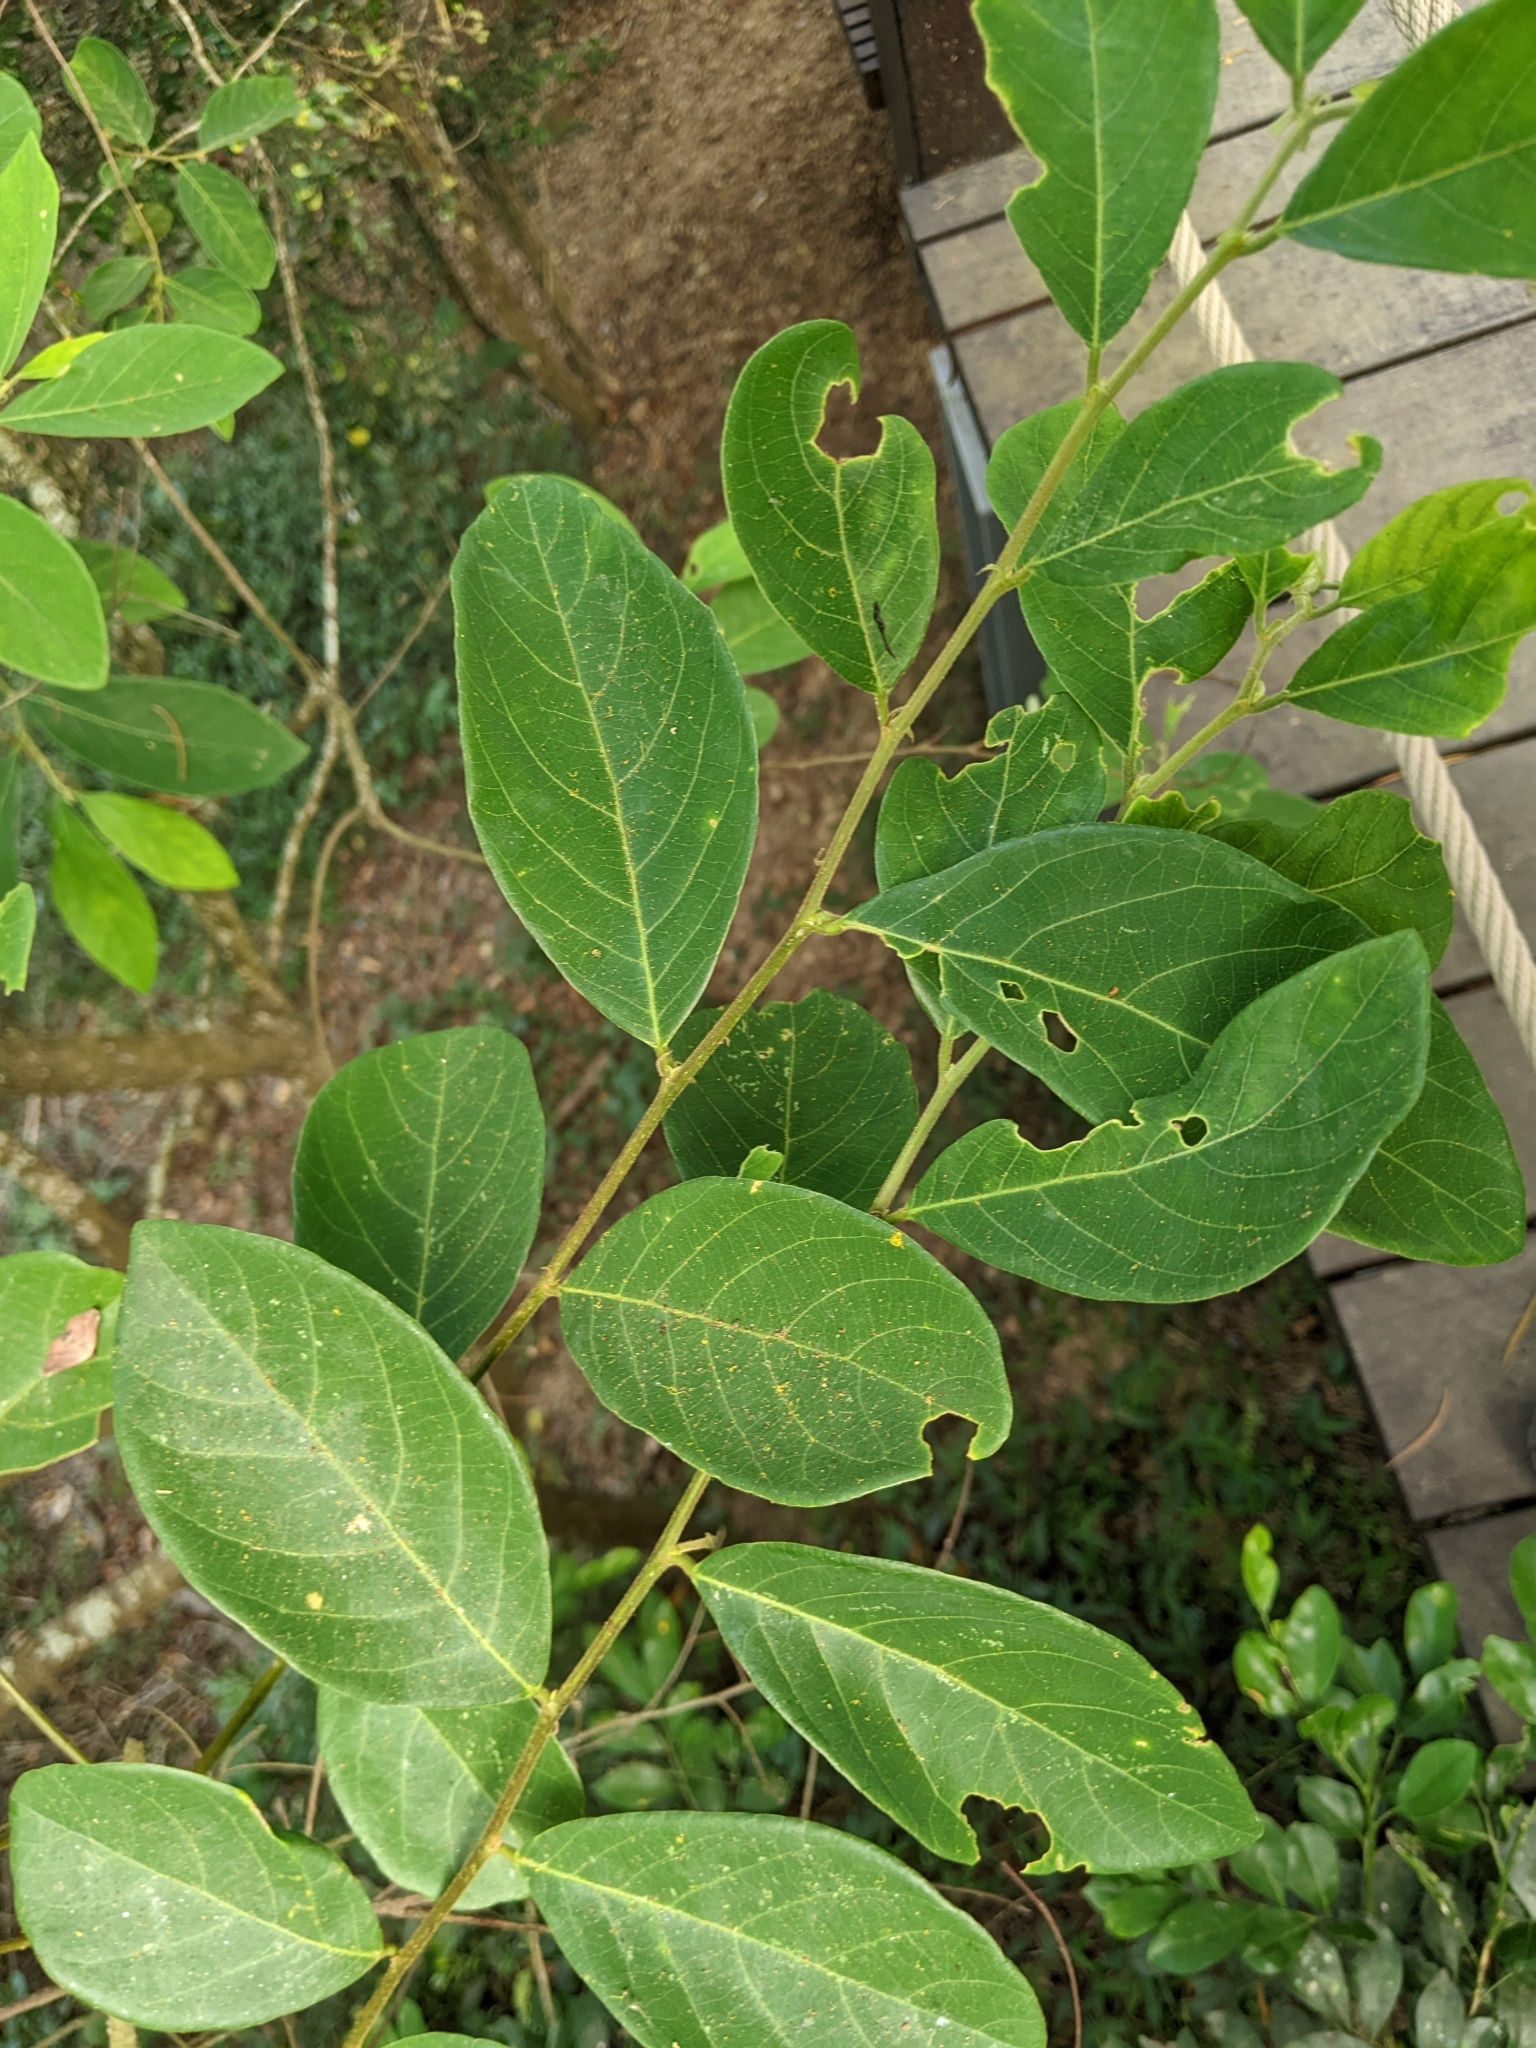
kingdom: Plantae
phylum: Tracheophyta
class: Magnoliopsida
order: Malpighiales
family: Phyllanthaceae
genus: Bridelia
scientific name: Bridelia tomentosa
